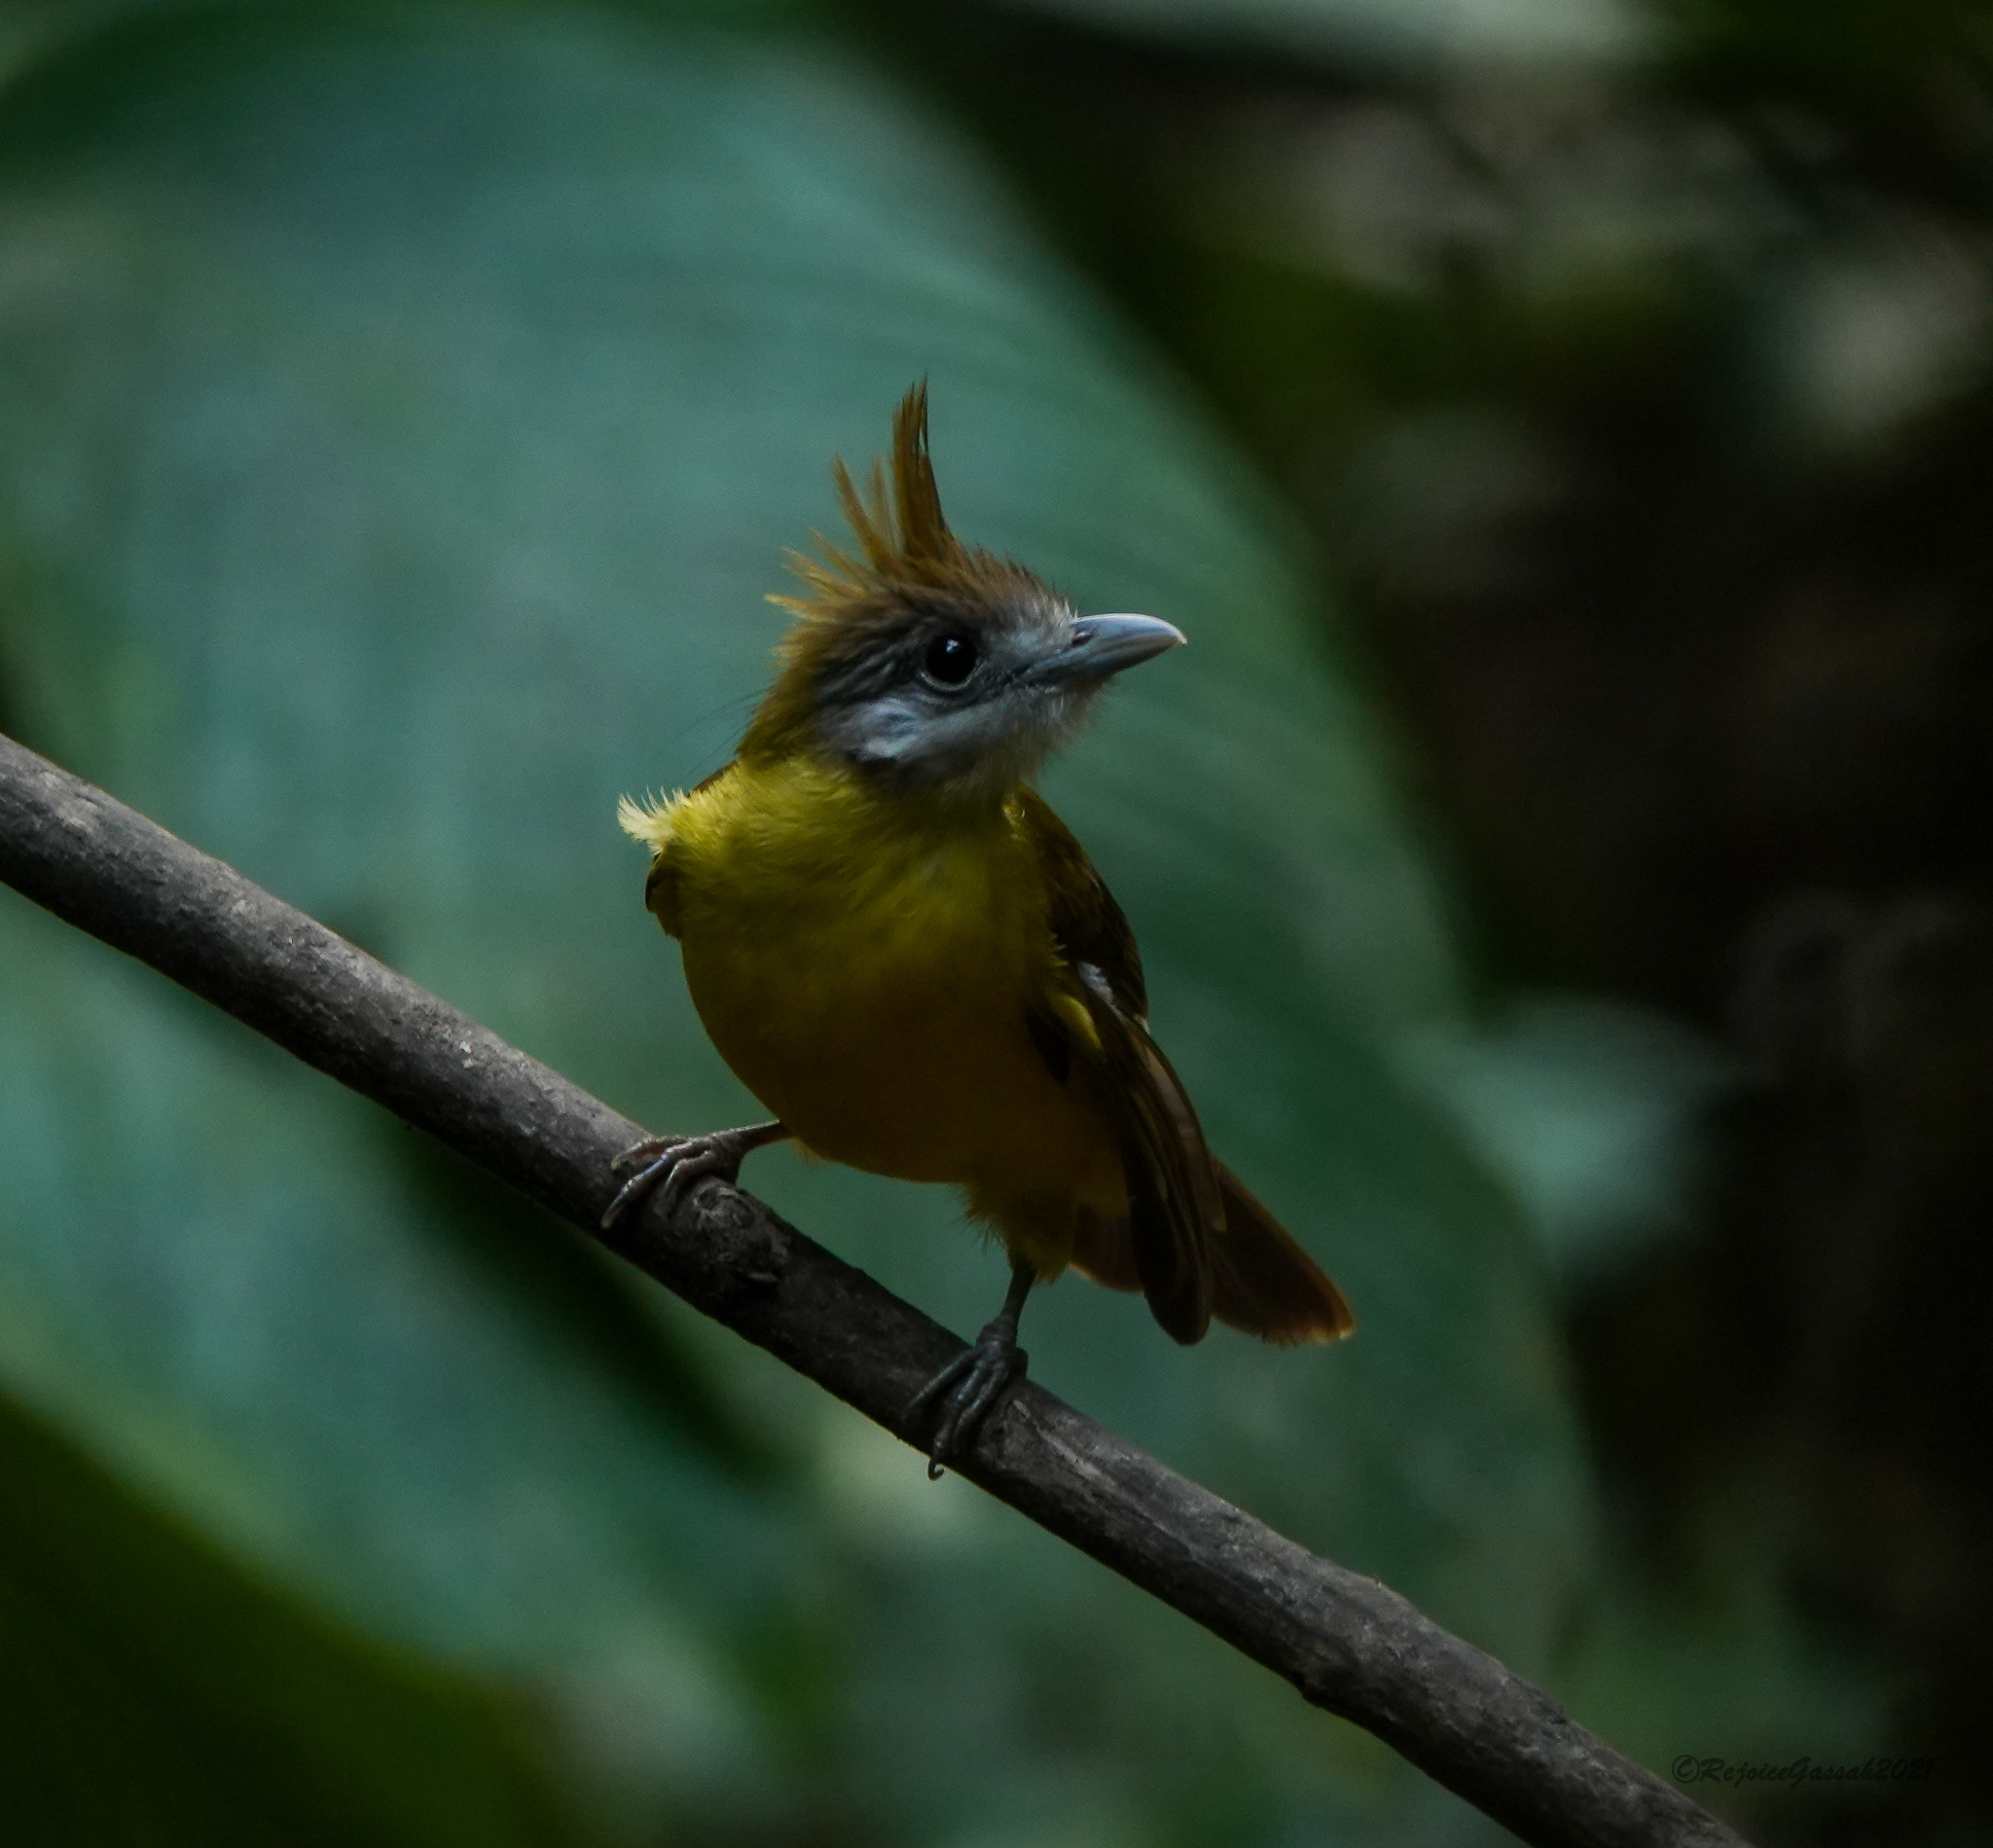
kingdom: Animalia
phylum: Chordata
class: Aves
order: Passeriformes
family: Pycnonotidae
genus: Alophoixus
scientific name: Alophoixus flaveolus
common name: White-throated bulbul
